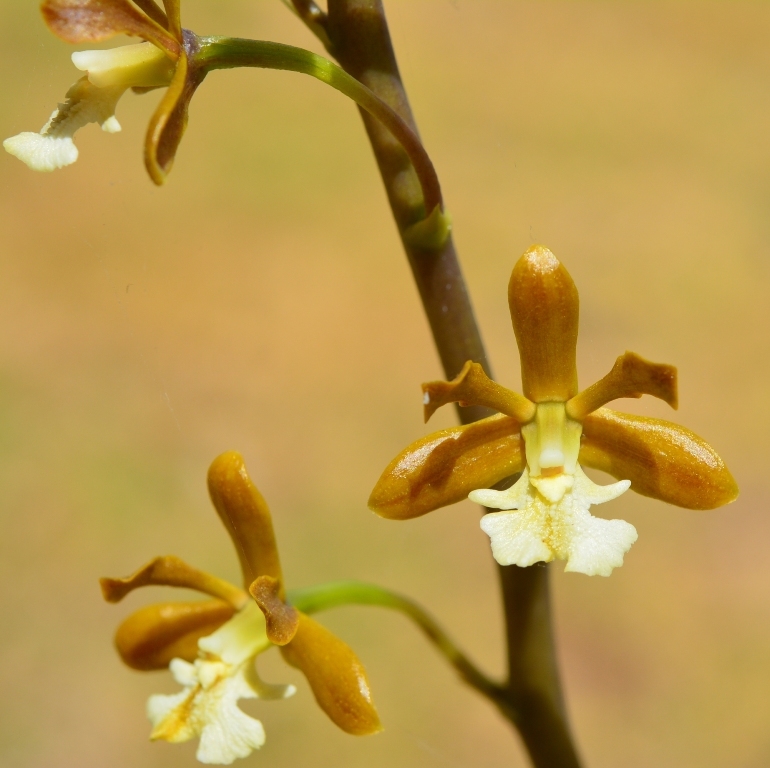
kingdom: Plantae
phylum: Tracheophyta
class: Liliopsida
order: Asparagales
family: Orchidaceae
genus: Prosthechea
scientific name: Prosthechea varicosa
